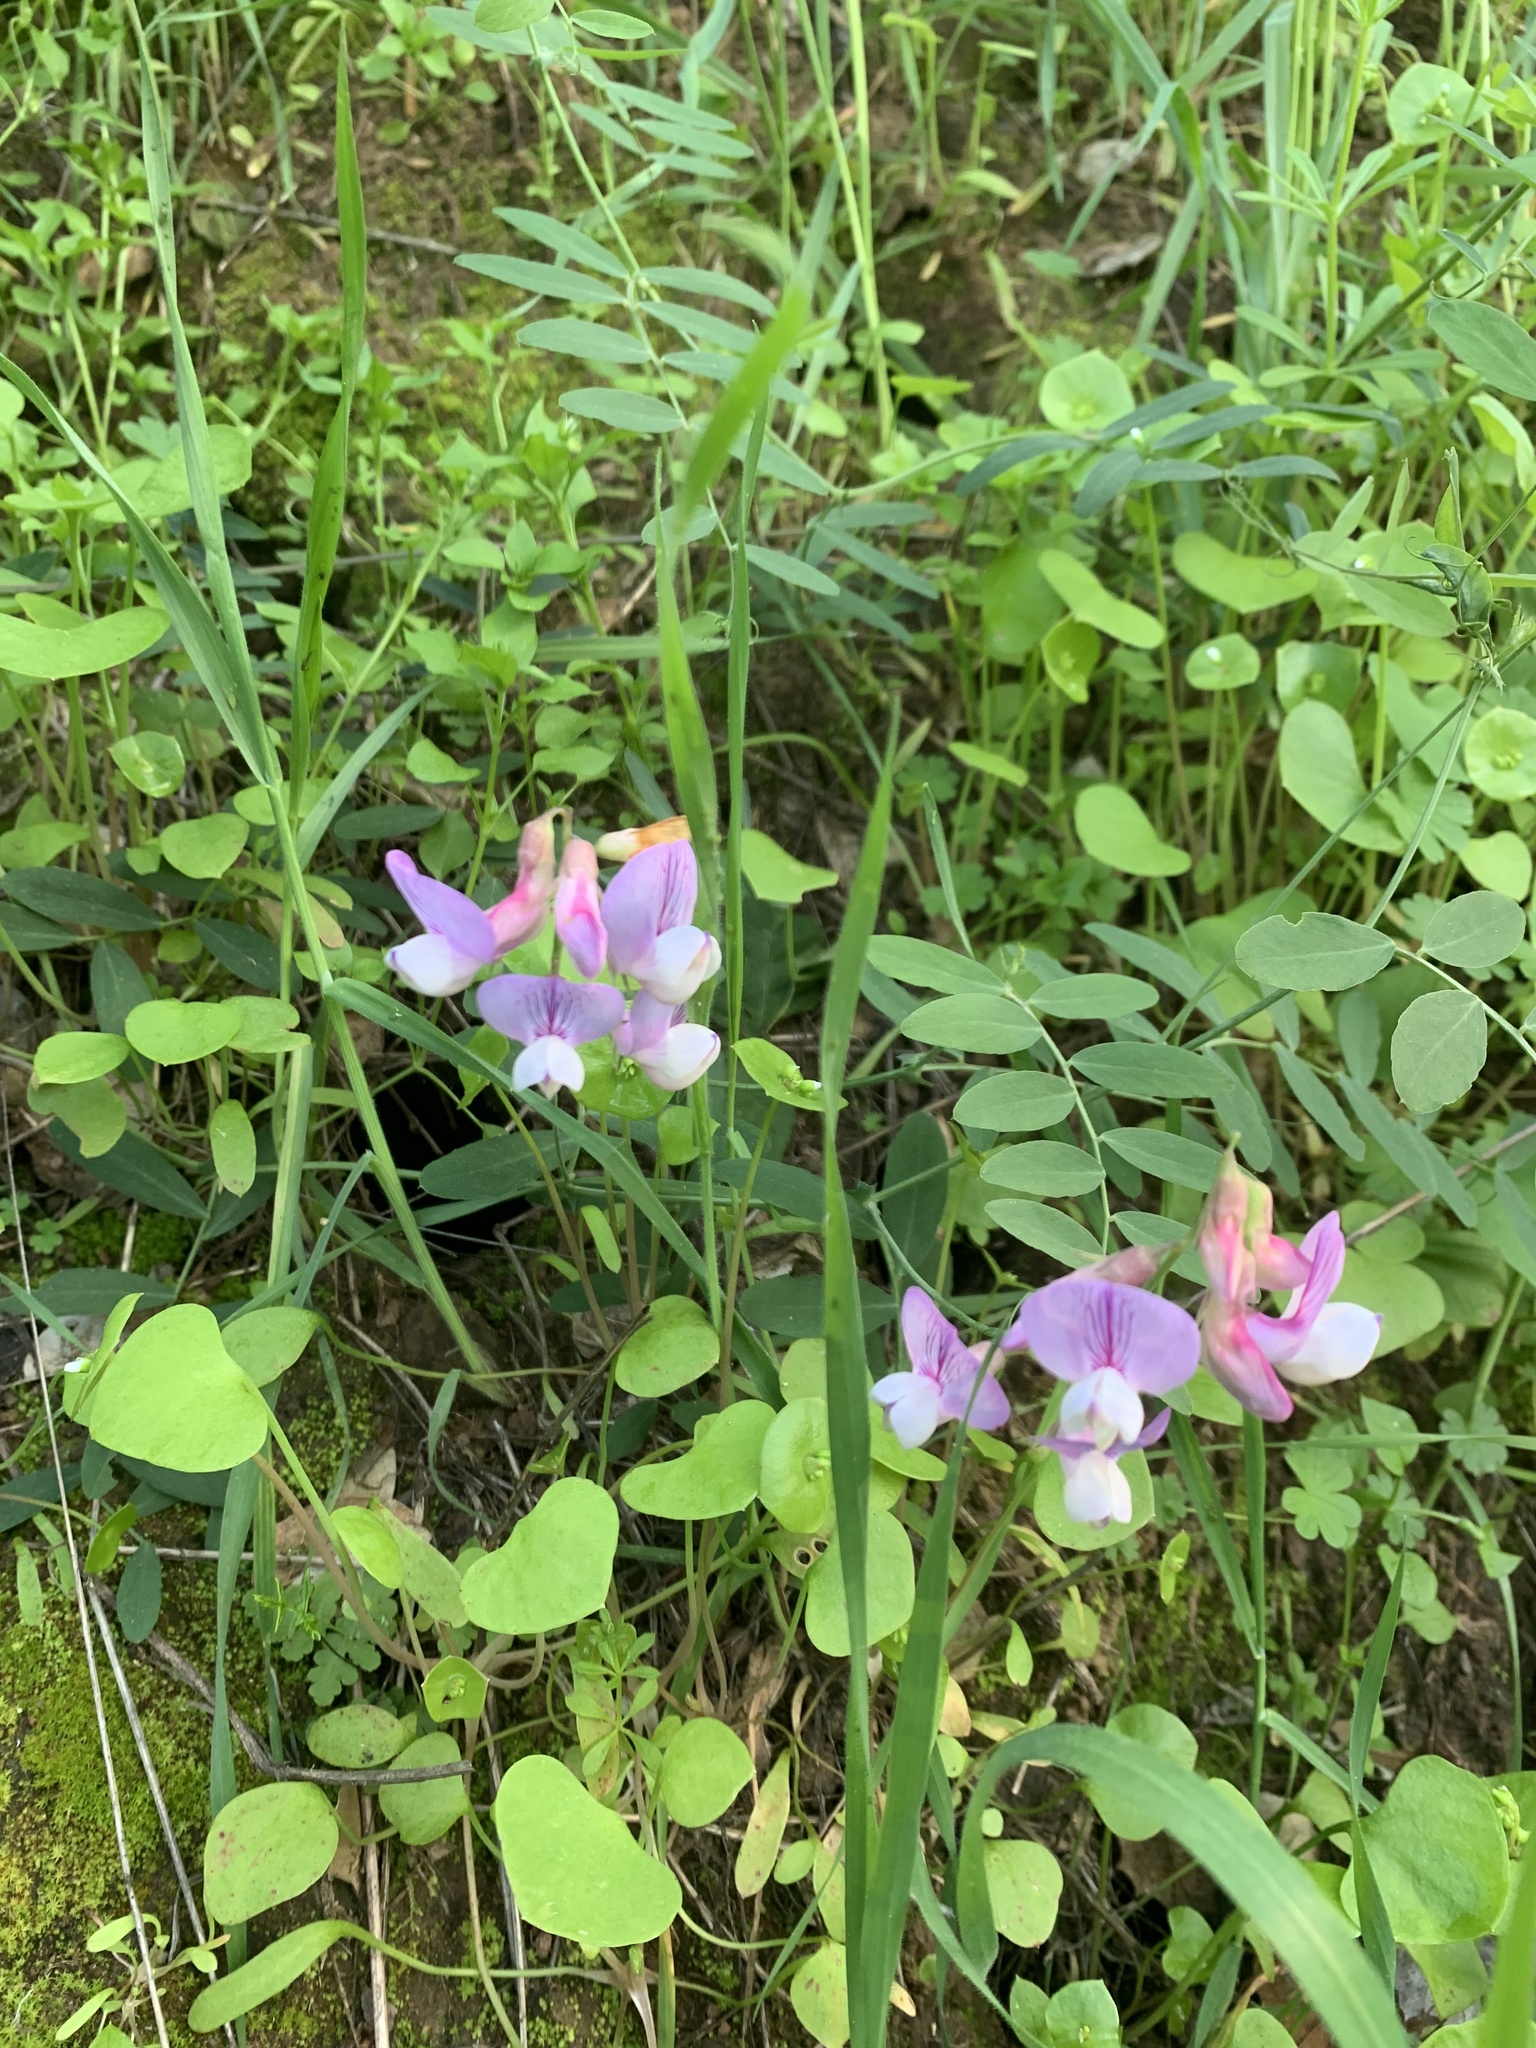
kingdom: Plantae
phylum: Tracheophyta
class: Magnoliopsida
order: Fabales
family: Fabaceae
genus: Lathyrus
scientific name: Lathyrus vestitus
